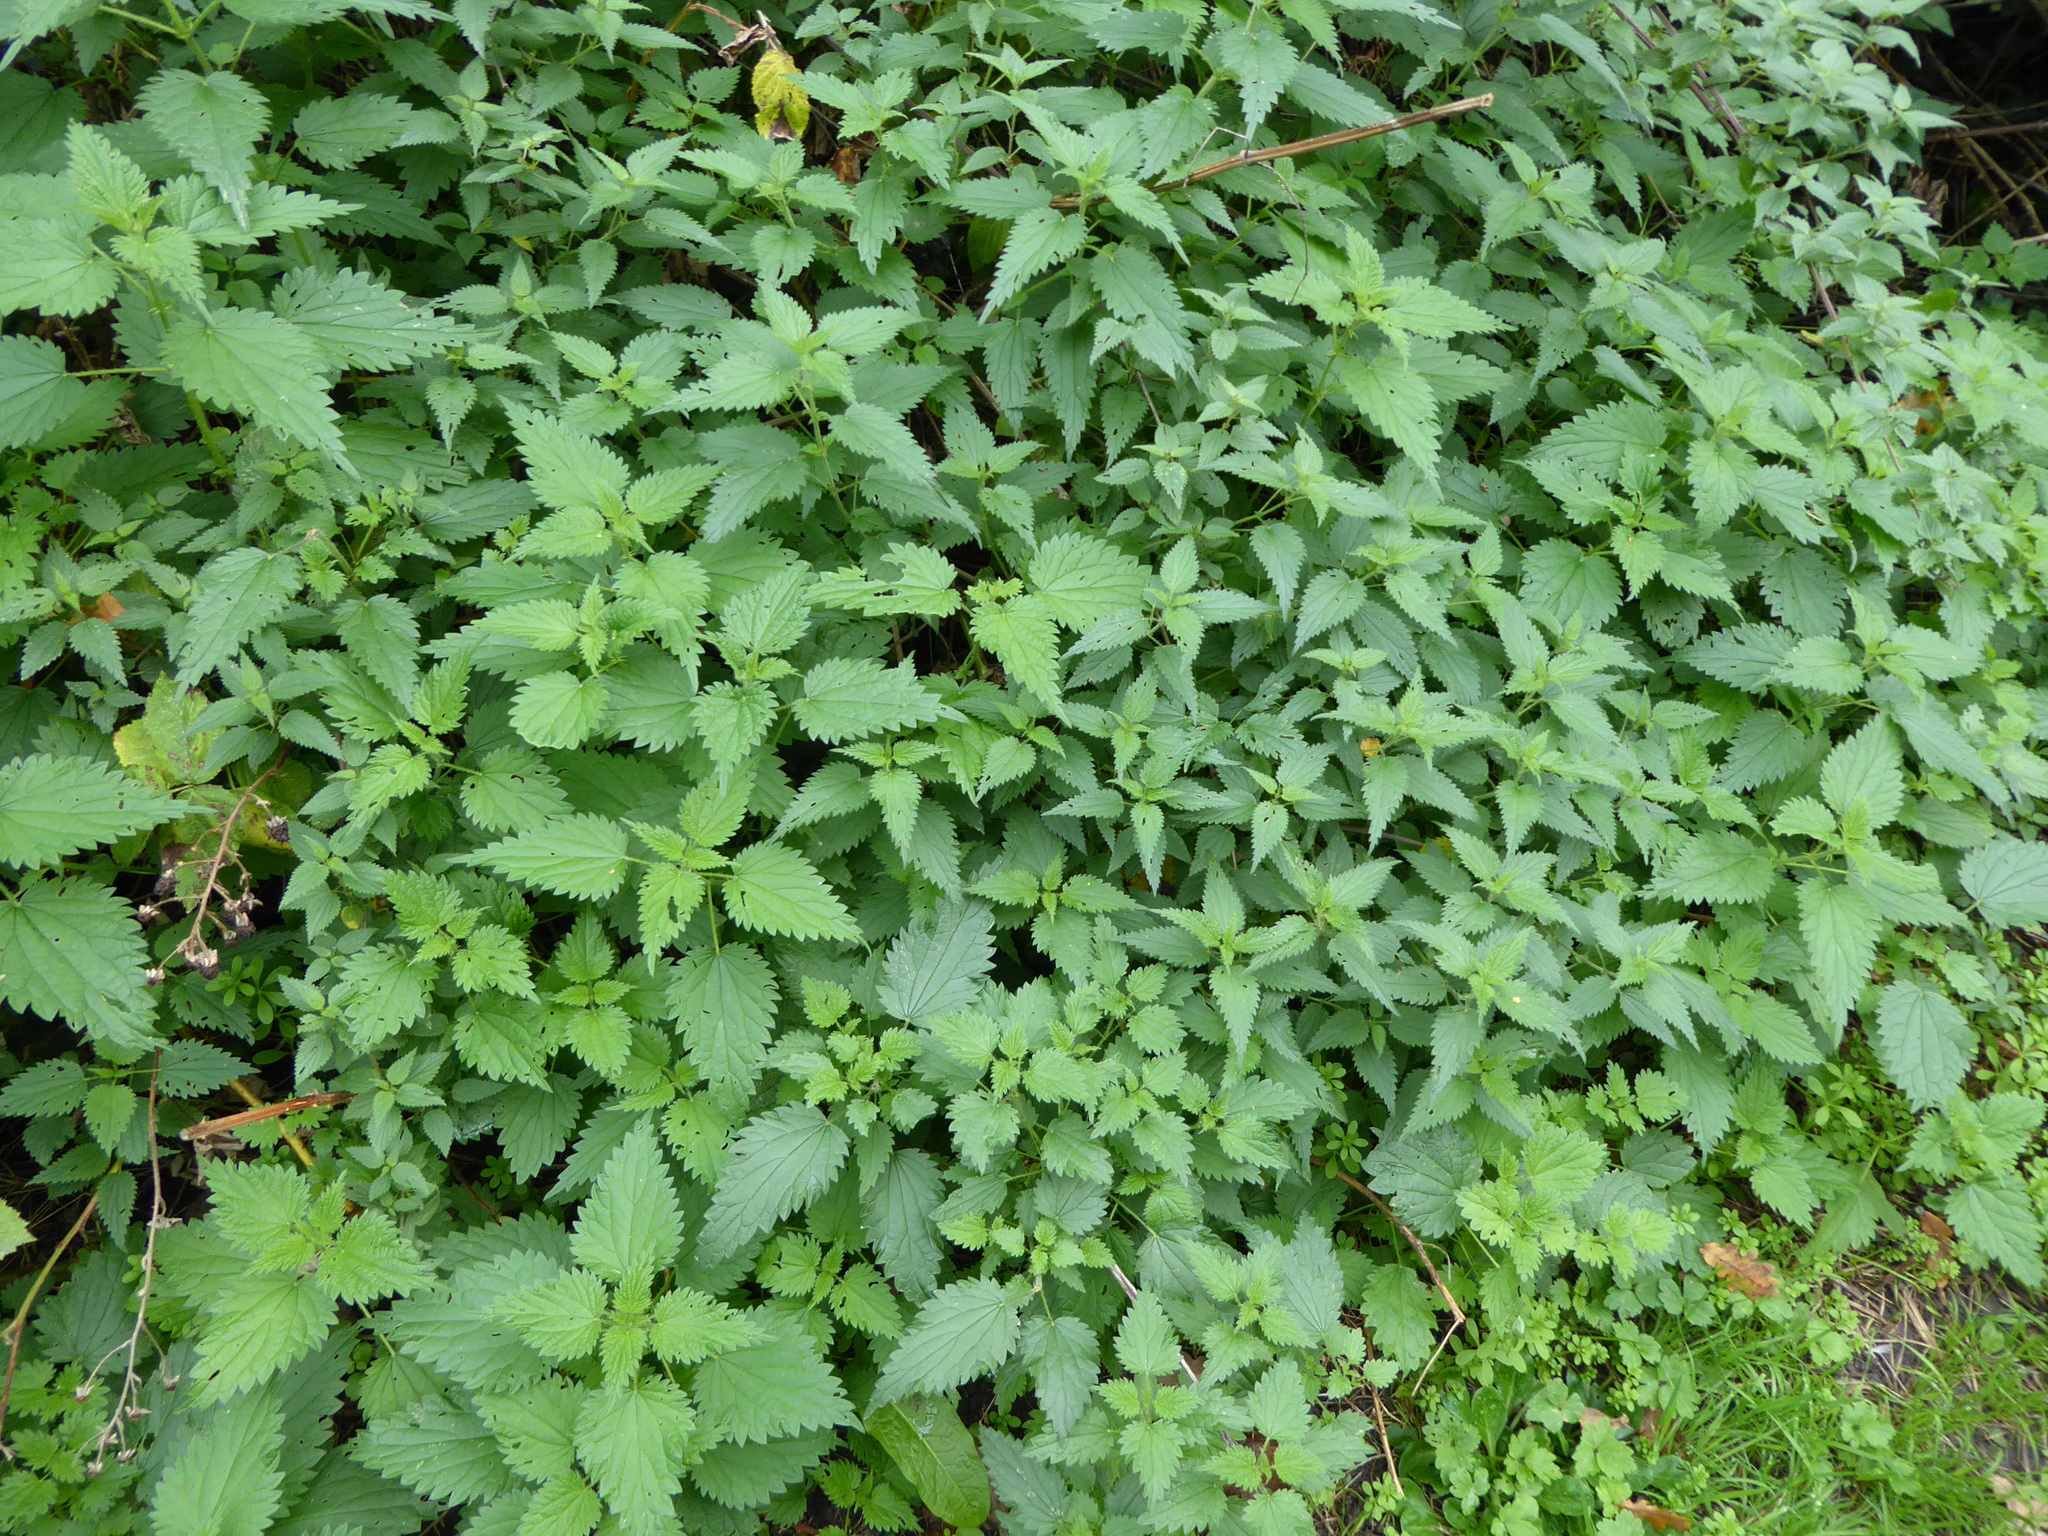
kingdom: Plantae
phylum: Tracheophyta
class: Magnoliopsida
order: Rosales
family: Urticaceae
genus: Urtica
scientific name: Urtica dioica
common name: Common nettle
